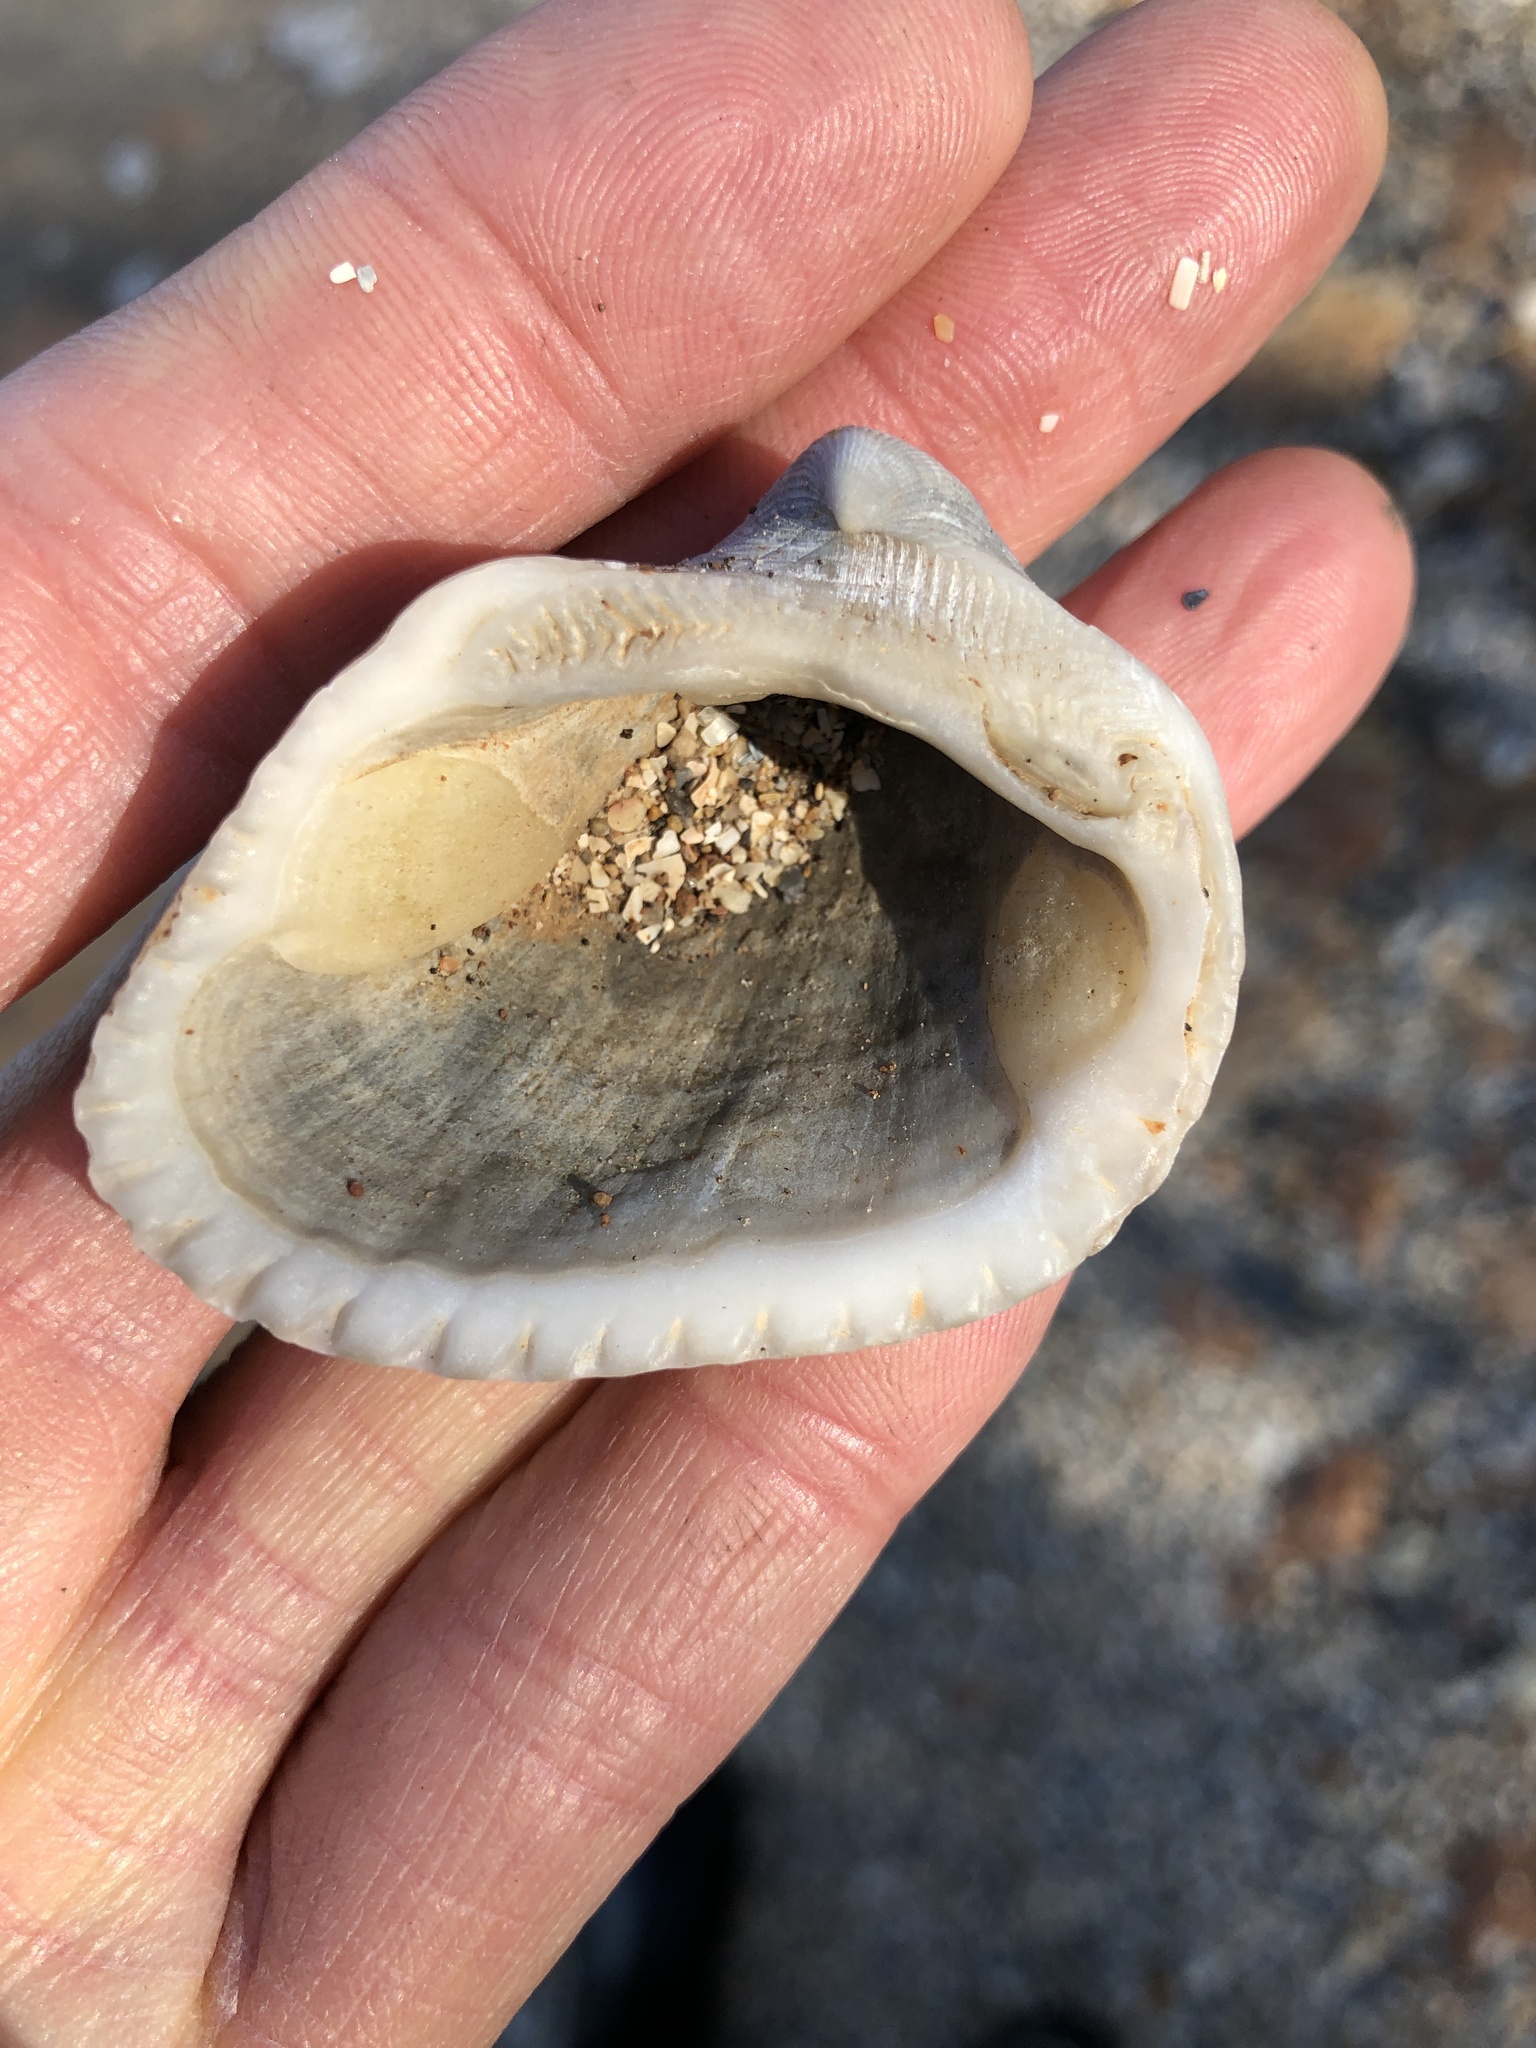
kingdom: Animalia
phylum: Mollusca
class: Bivalvia
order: Arcida
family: Noetiidae
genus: Noetia
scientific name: Noetia ponderosa
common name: Ponderous ark
